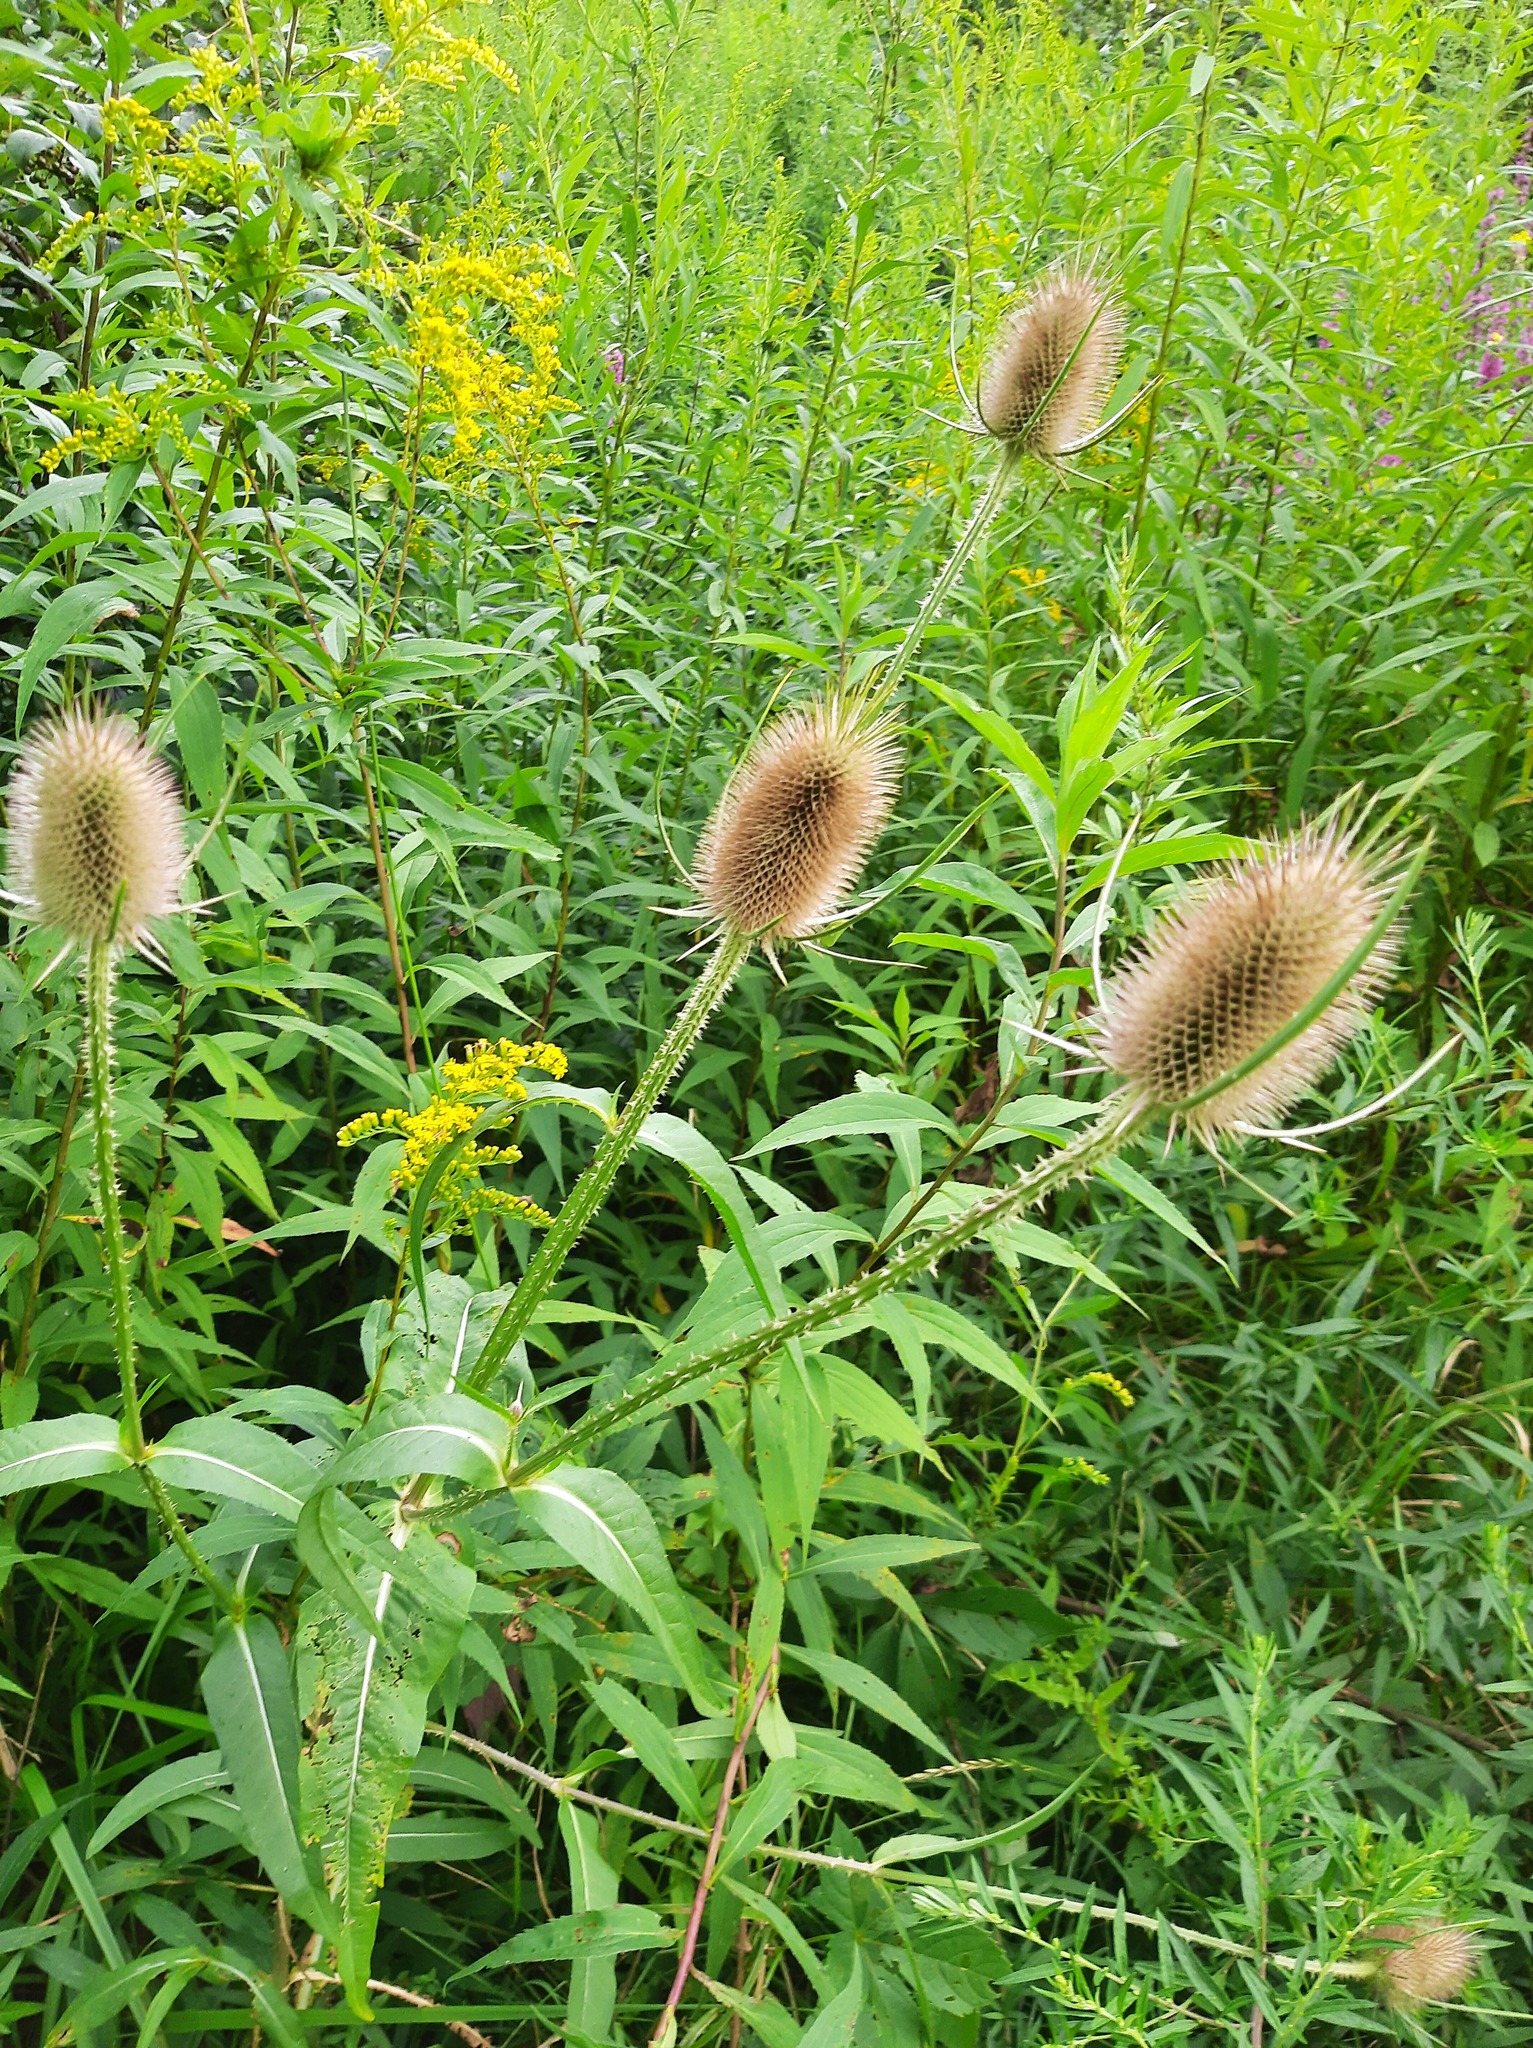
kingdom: Plantae
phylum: Tracheophyta
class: Magnoliopsida
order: Dipsacales
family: Caprifoliaceae
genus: Dipsacus
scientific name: Dipsacus fullonum
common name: Teasel
